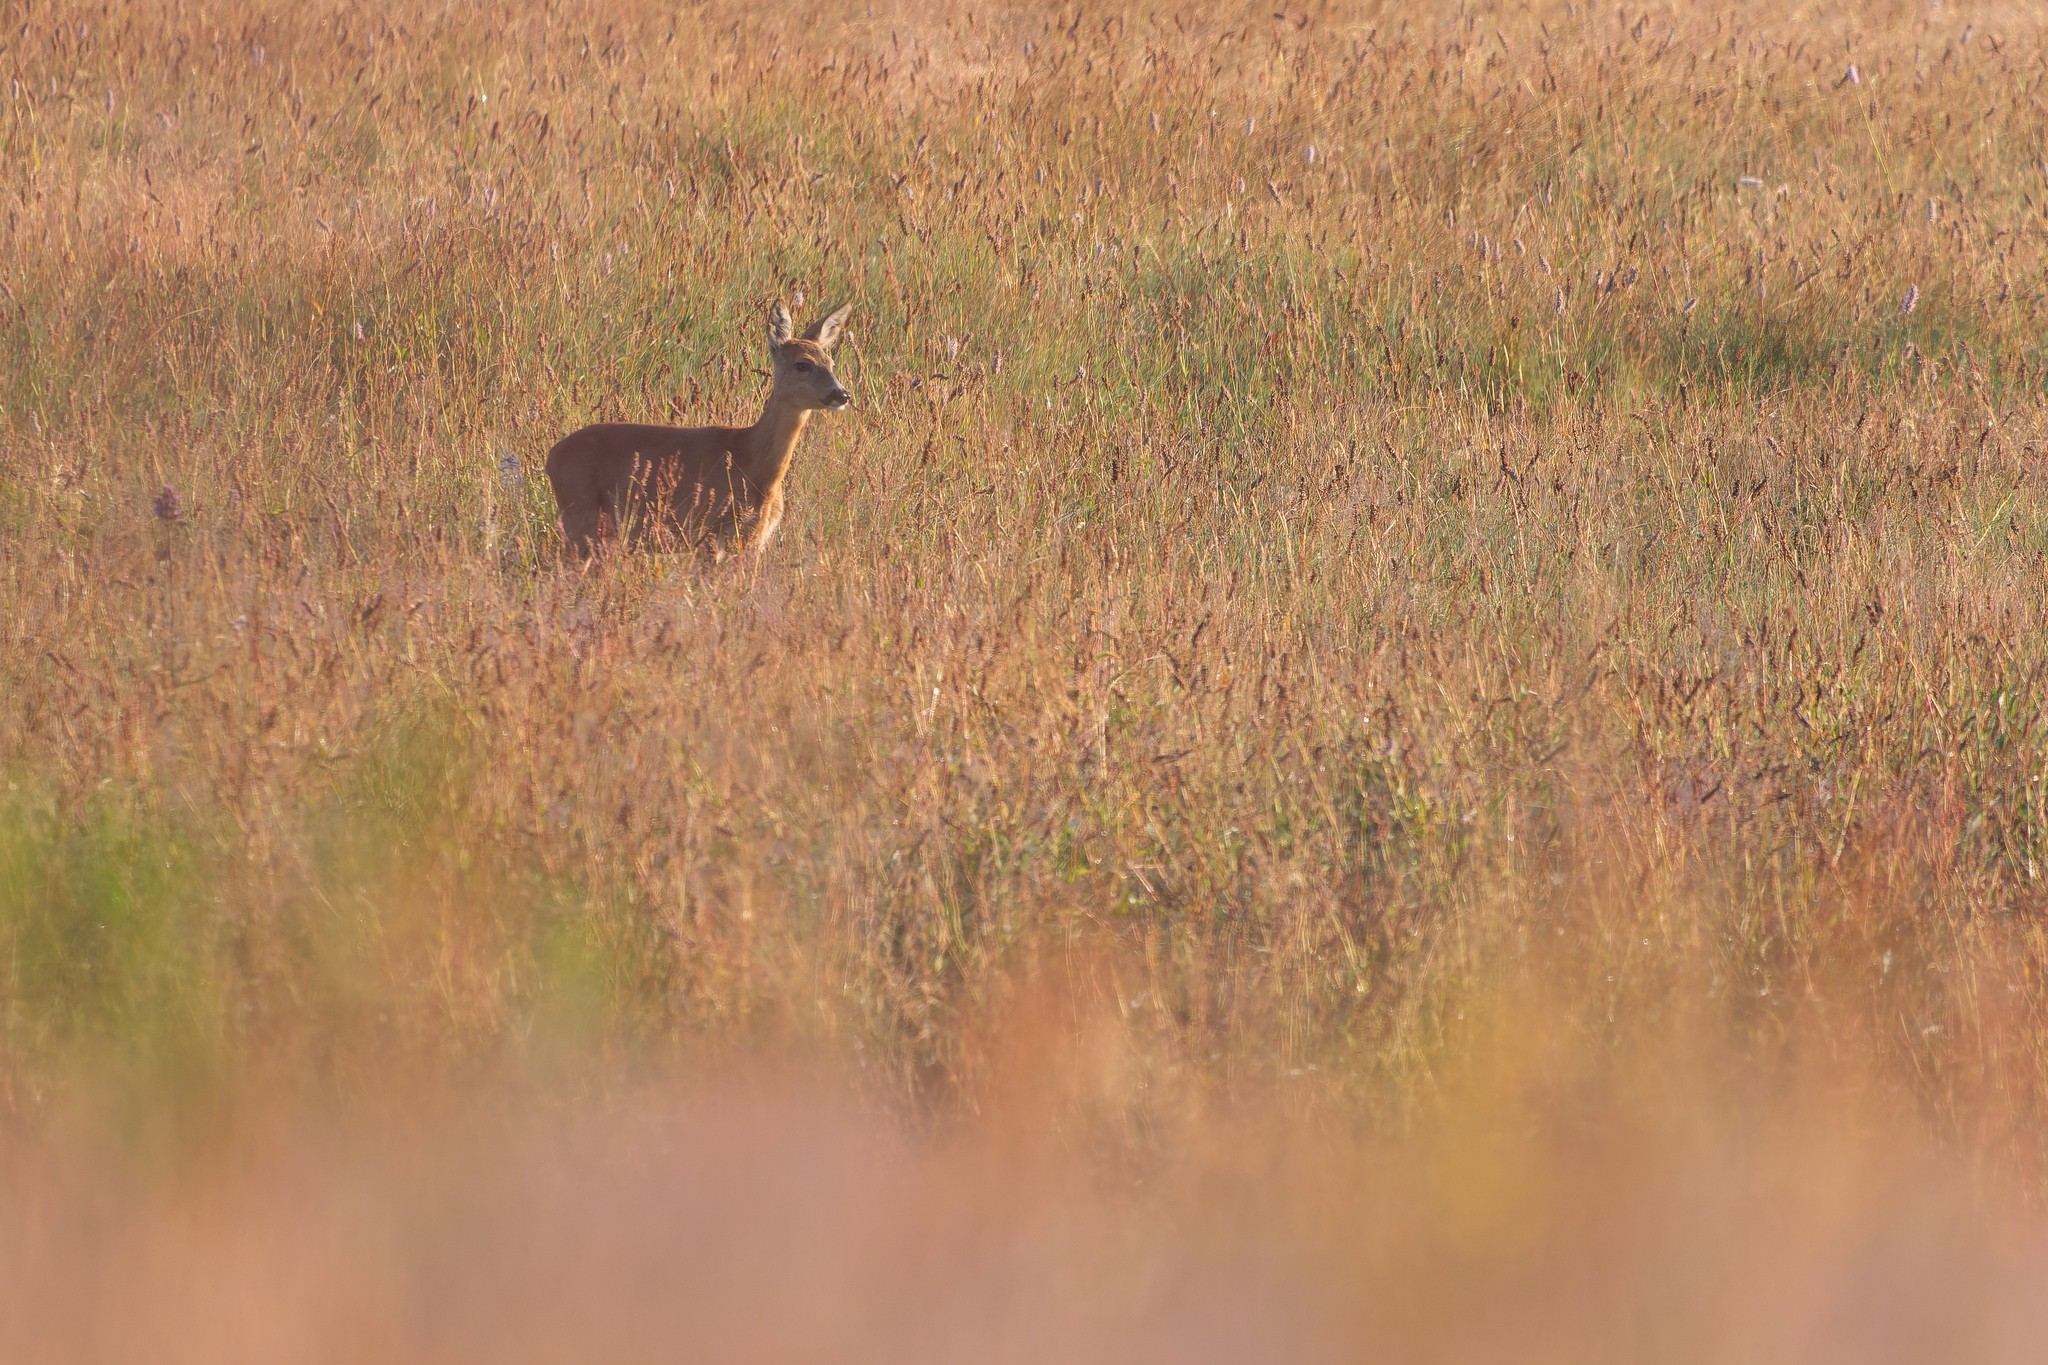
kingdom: Animalia
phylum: Chordata
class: Mammalia
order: Artiodactyla
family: Cervidae
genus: Capreolus
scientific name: Capreolus capreolus
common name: Western roe deer
